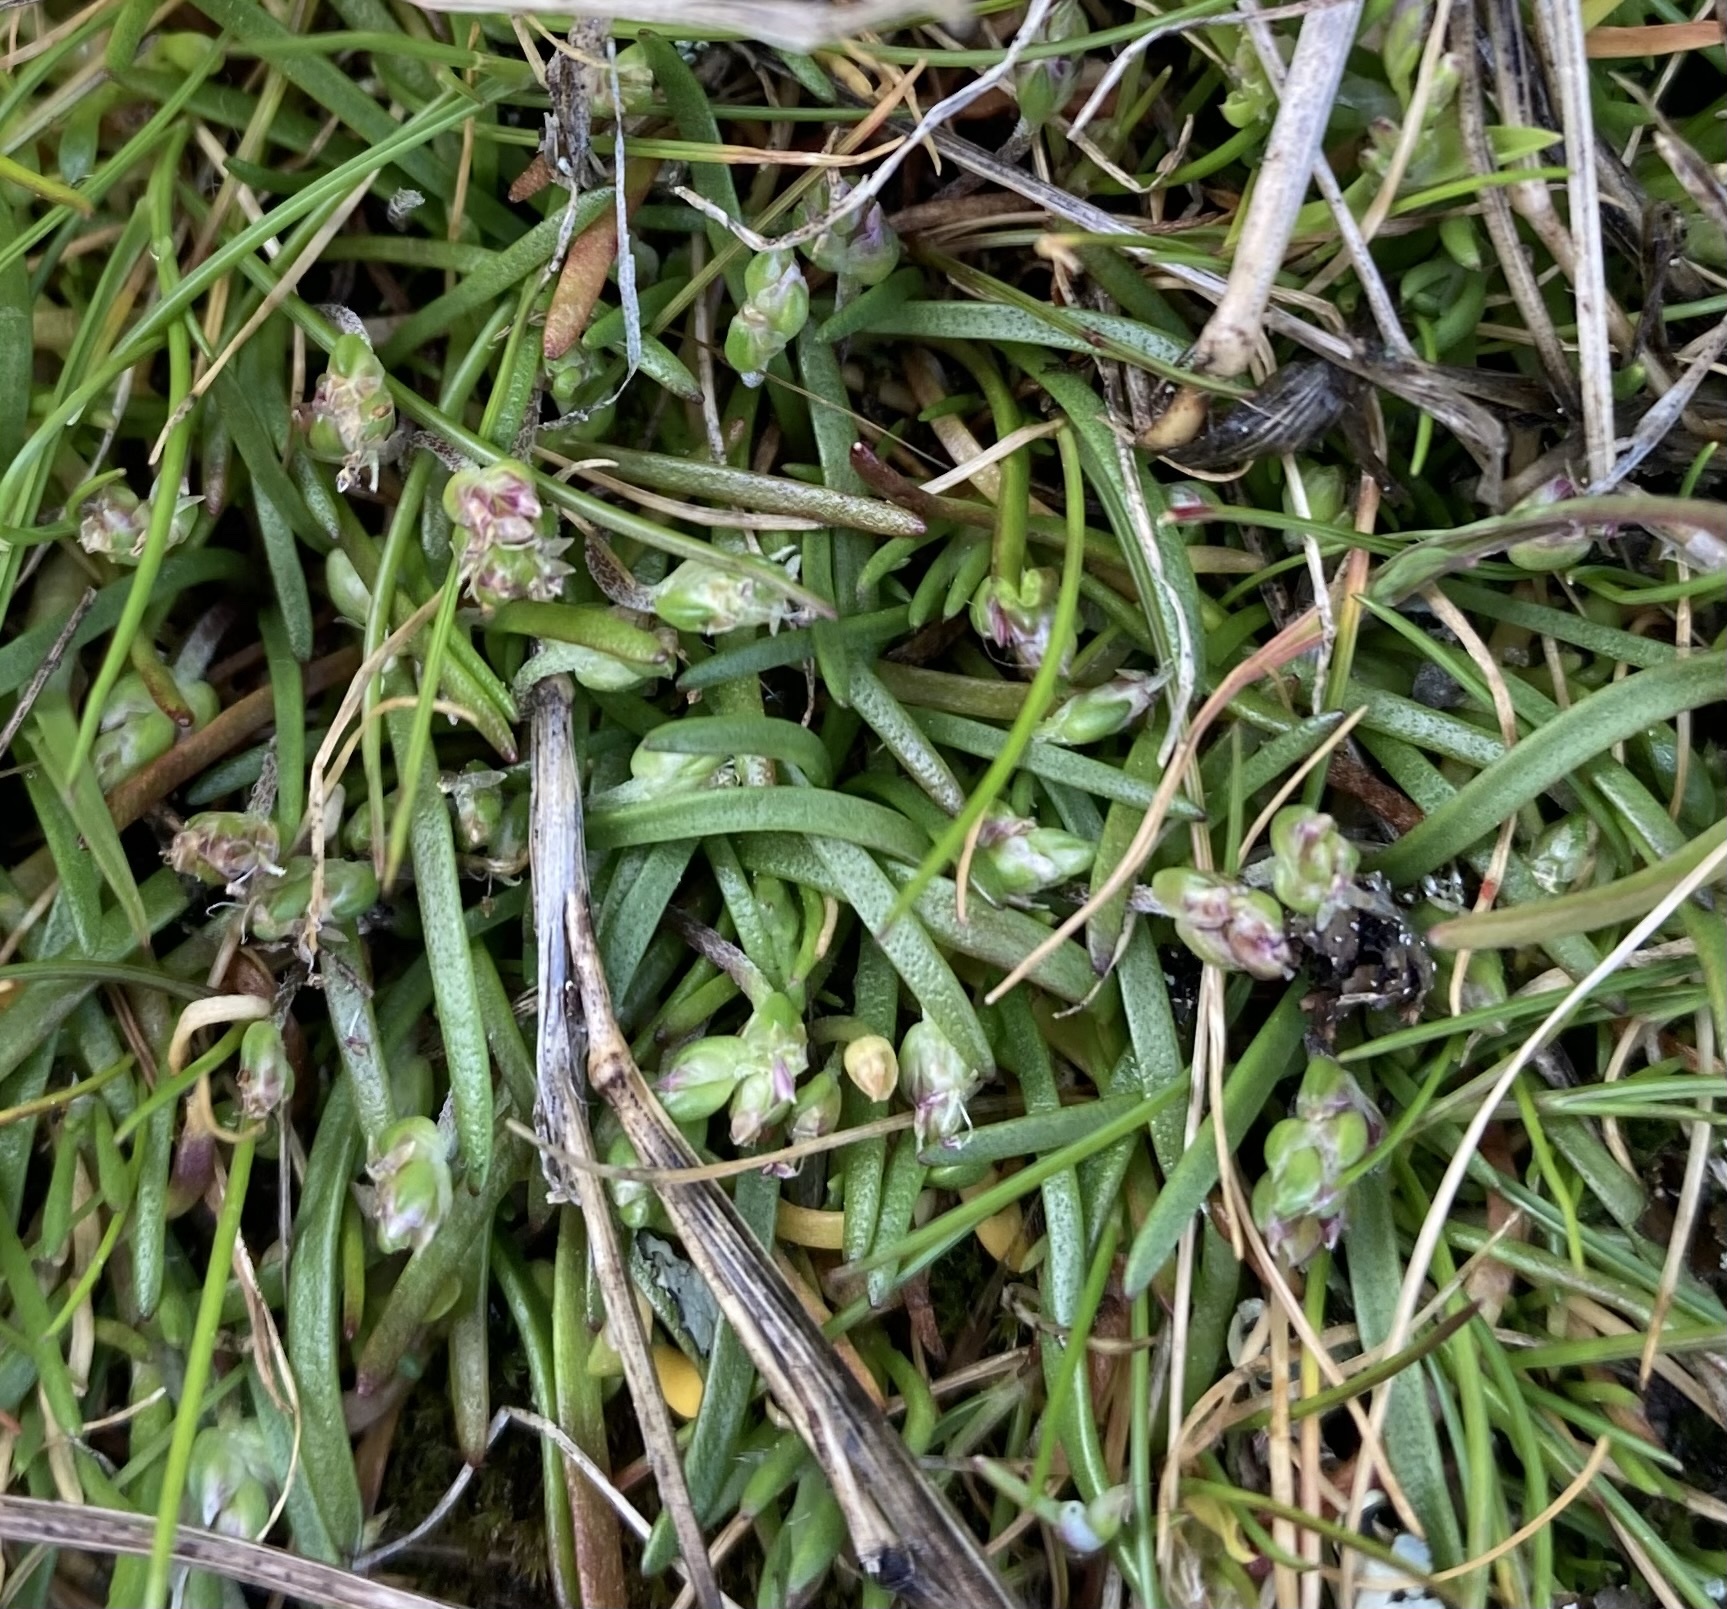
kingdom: Plantae
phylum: Tracheophyta
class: Magnoliopsida
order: Lamiales
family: Plantaginaceae
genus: Plantago
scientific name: Plantago elongata
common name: Linear-leaved plantain
